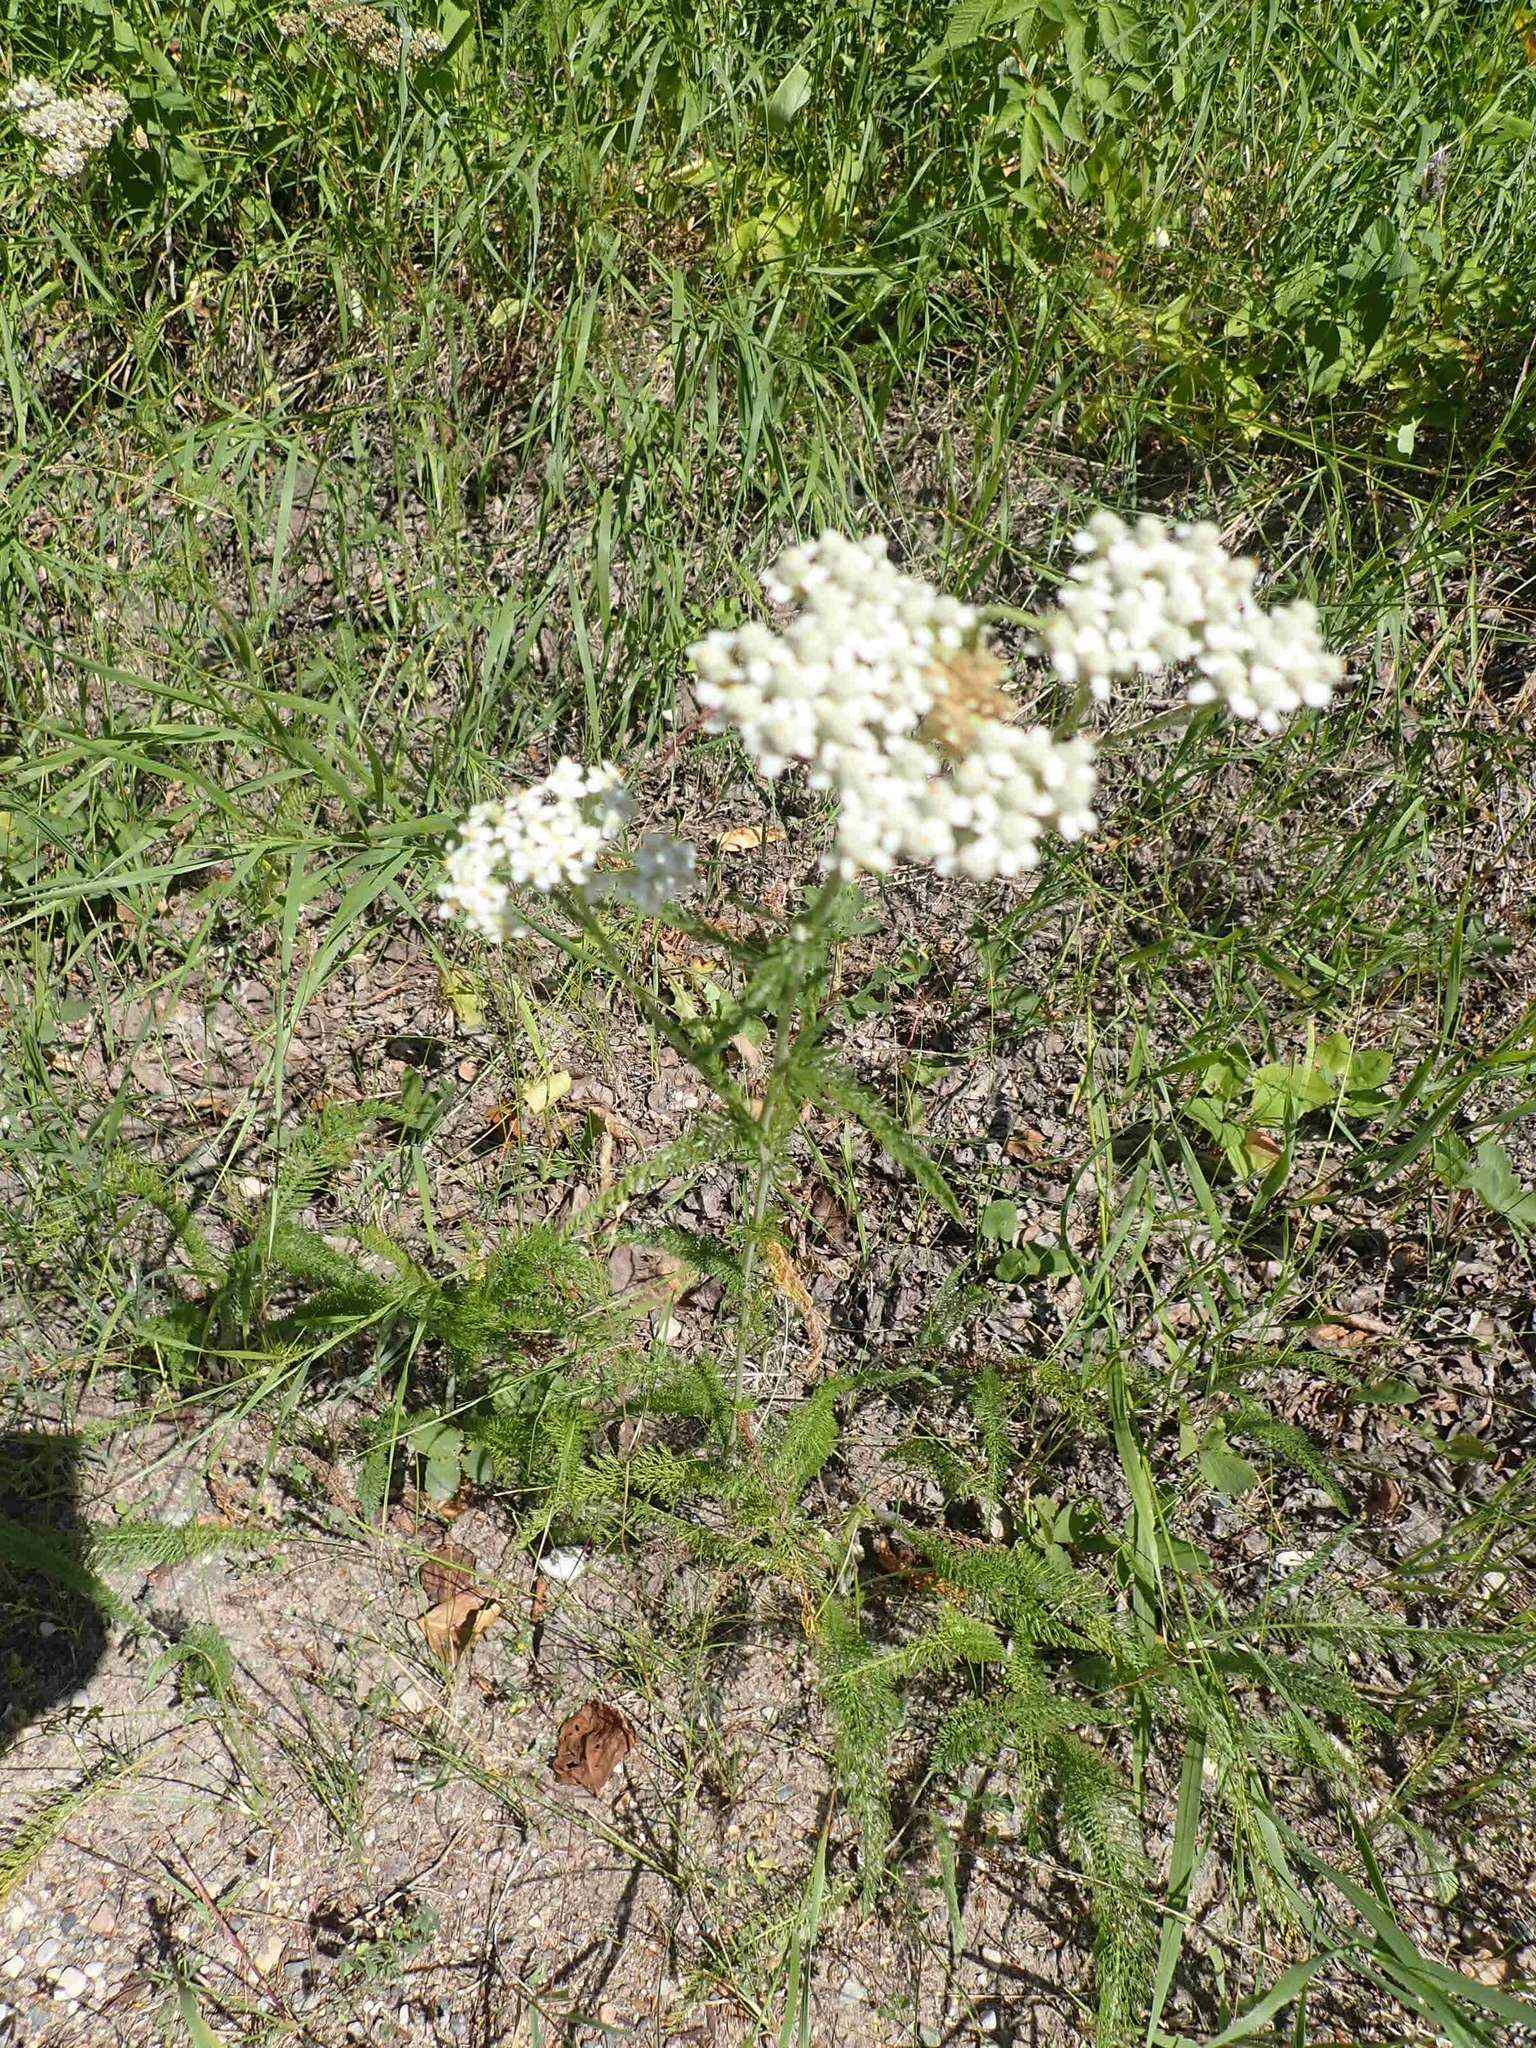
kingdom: Plantae
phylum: Tracheophyta
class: Magnoliopsida
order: Asterales
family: Asteraceae
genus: Achillea
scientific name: Achillea millefolium
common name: Yarrow
